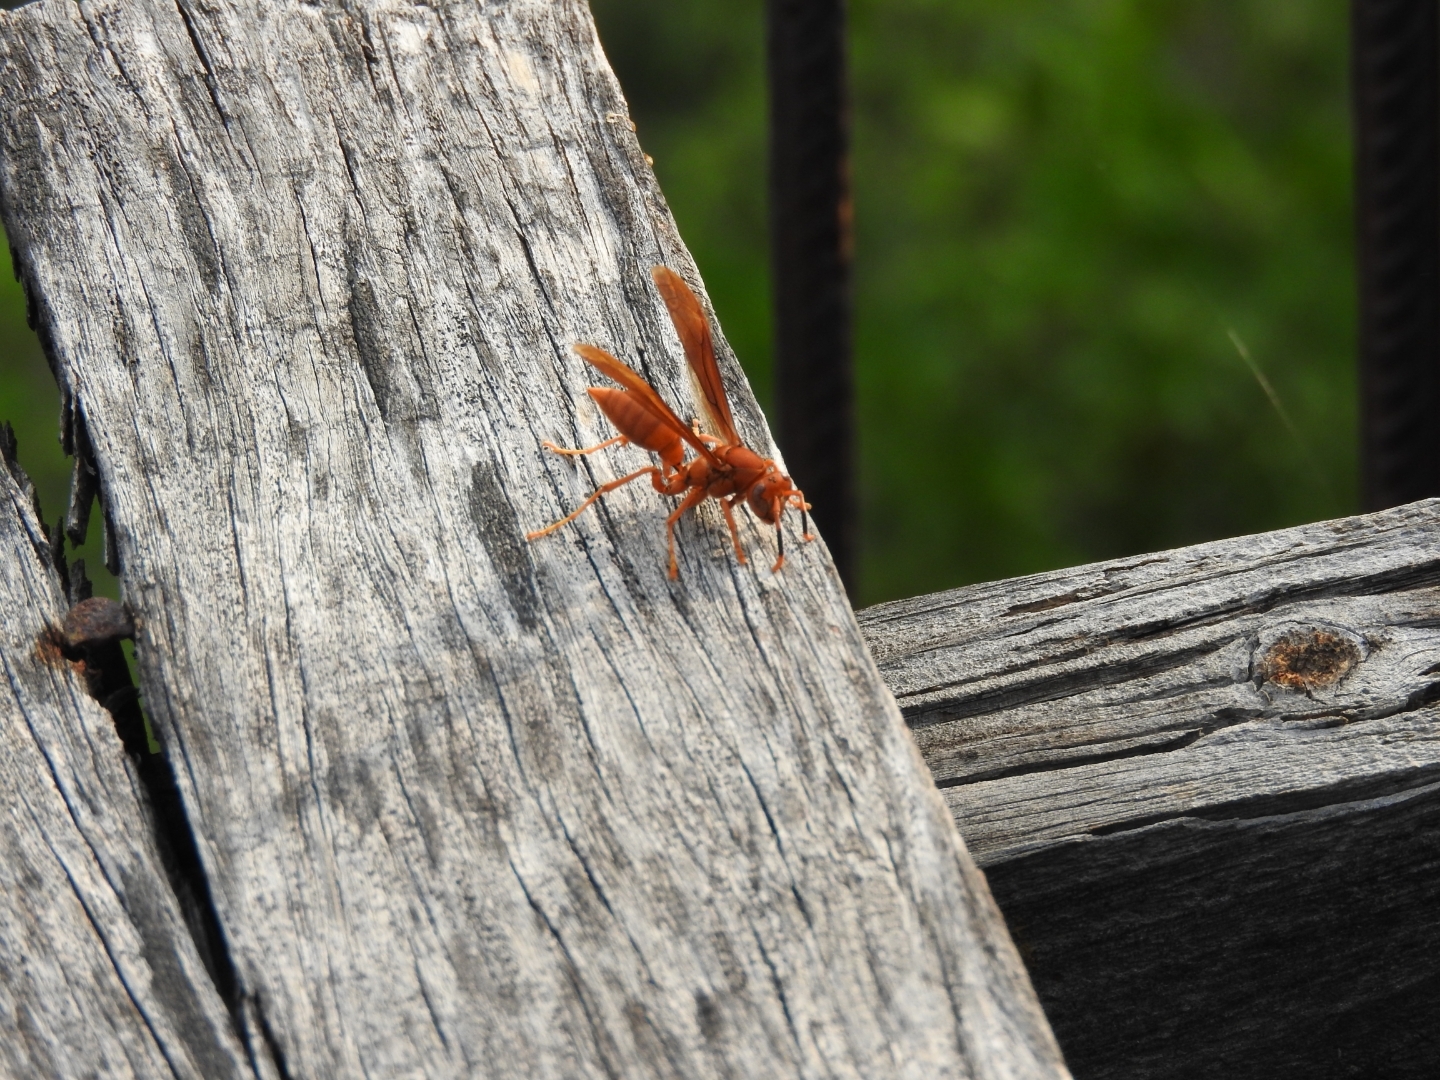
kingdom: Animalia
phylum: Arthropoda
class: Insecta
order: Hymenoptera
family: Eumenidae
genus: Polistes
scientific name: Polistes canadensis
